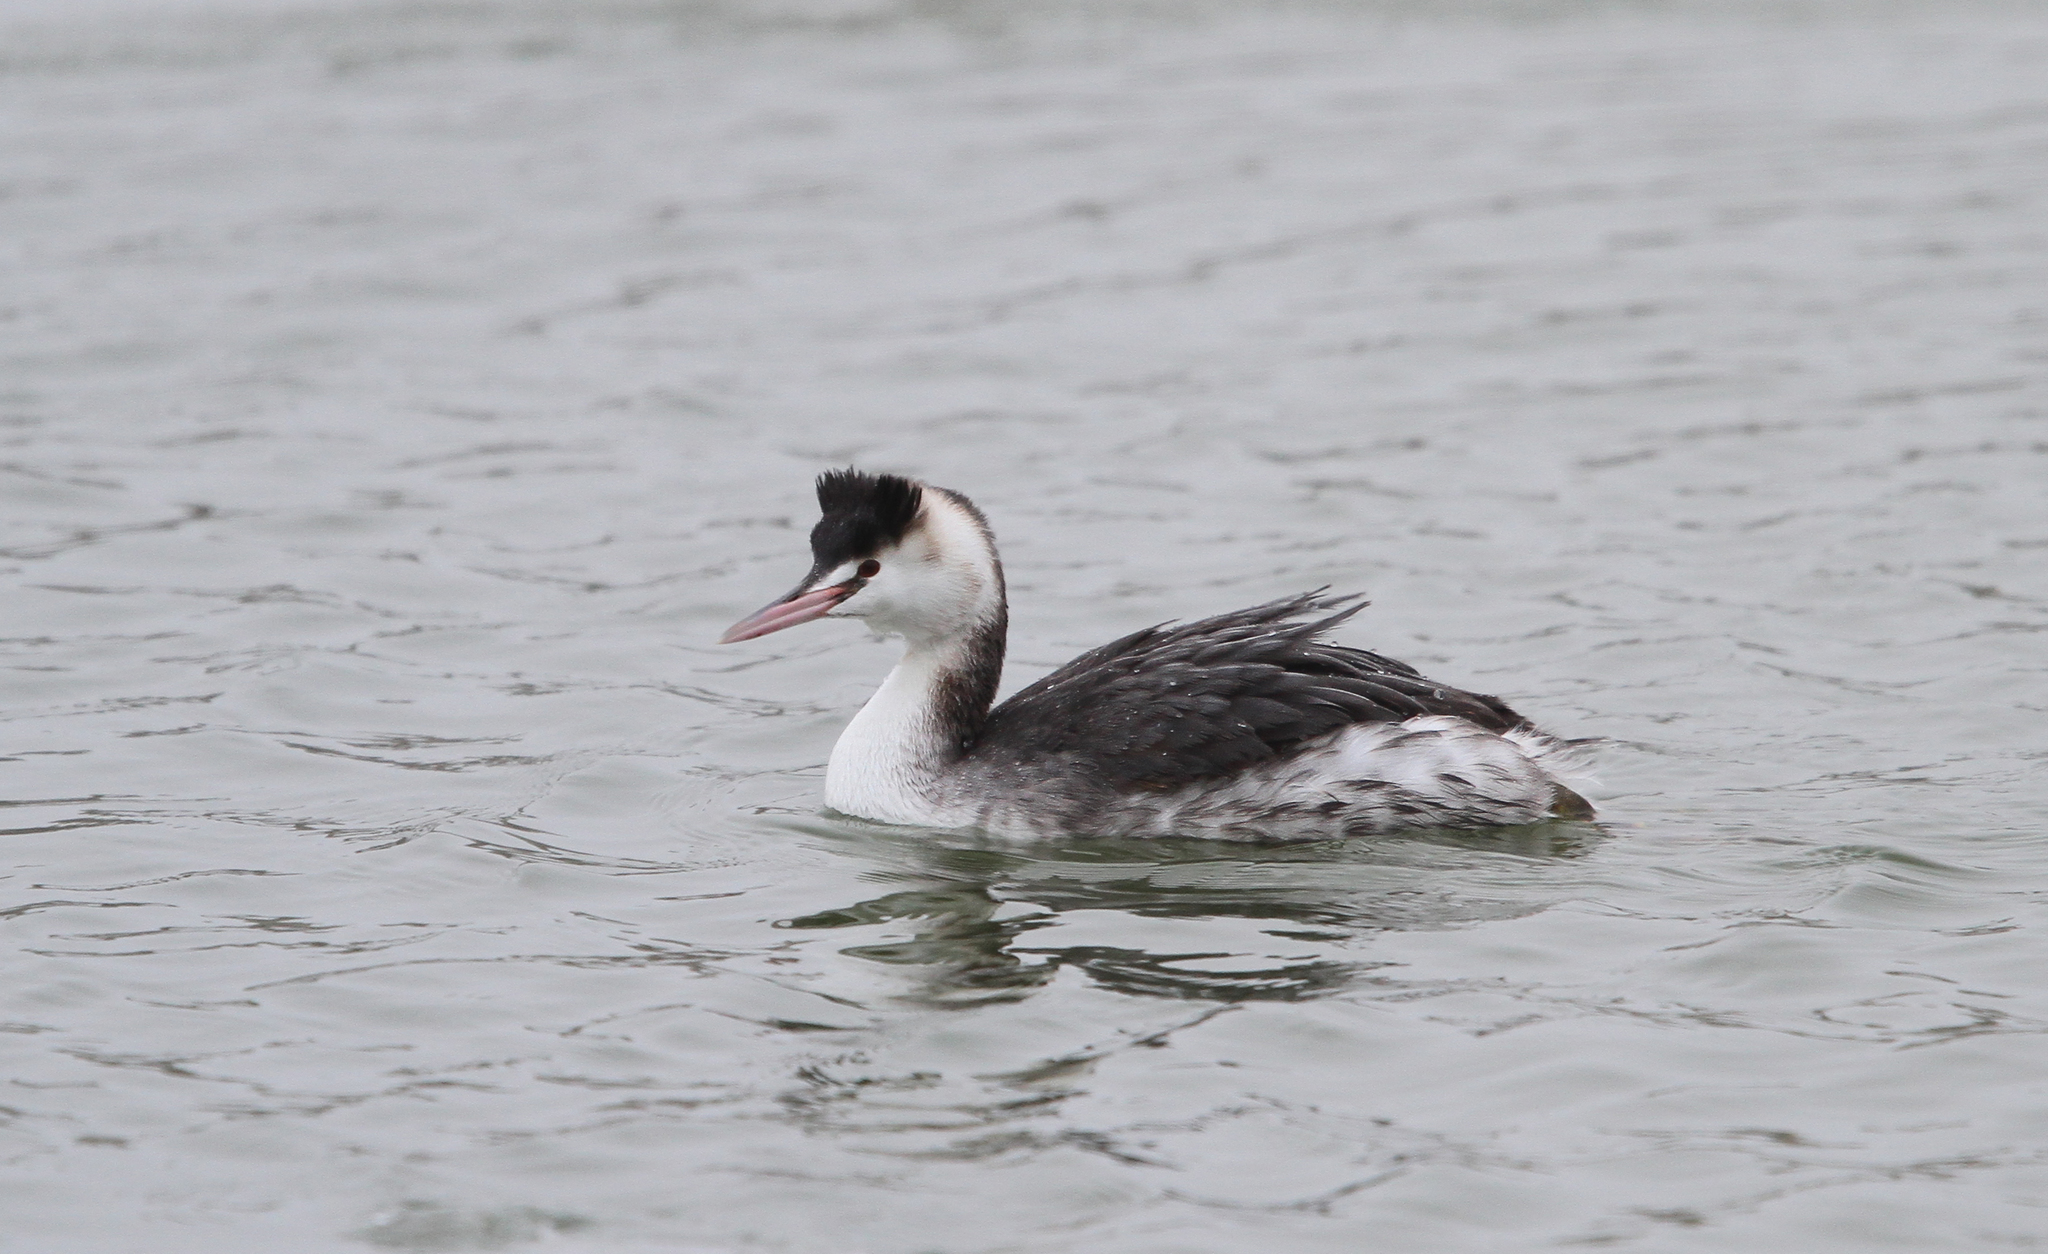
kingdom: Animalia
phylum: Chordata
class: Aves
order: Podicipediformes
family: Podicipedidae
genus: Podiceps
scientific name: Podiceps cristatus
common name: Great crested grebe
